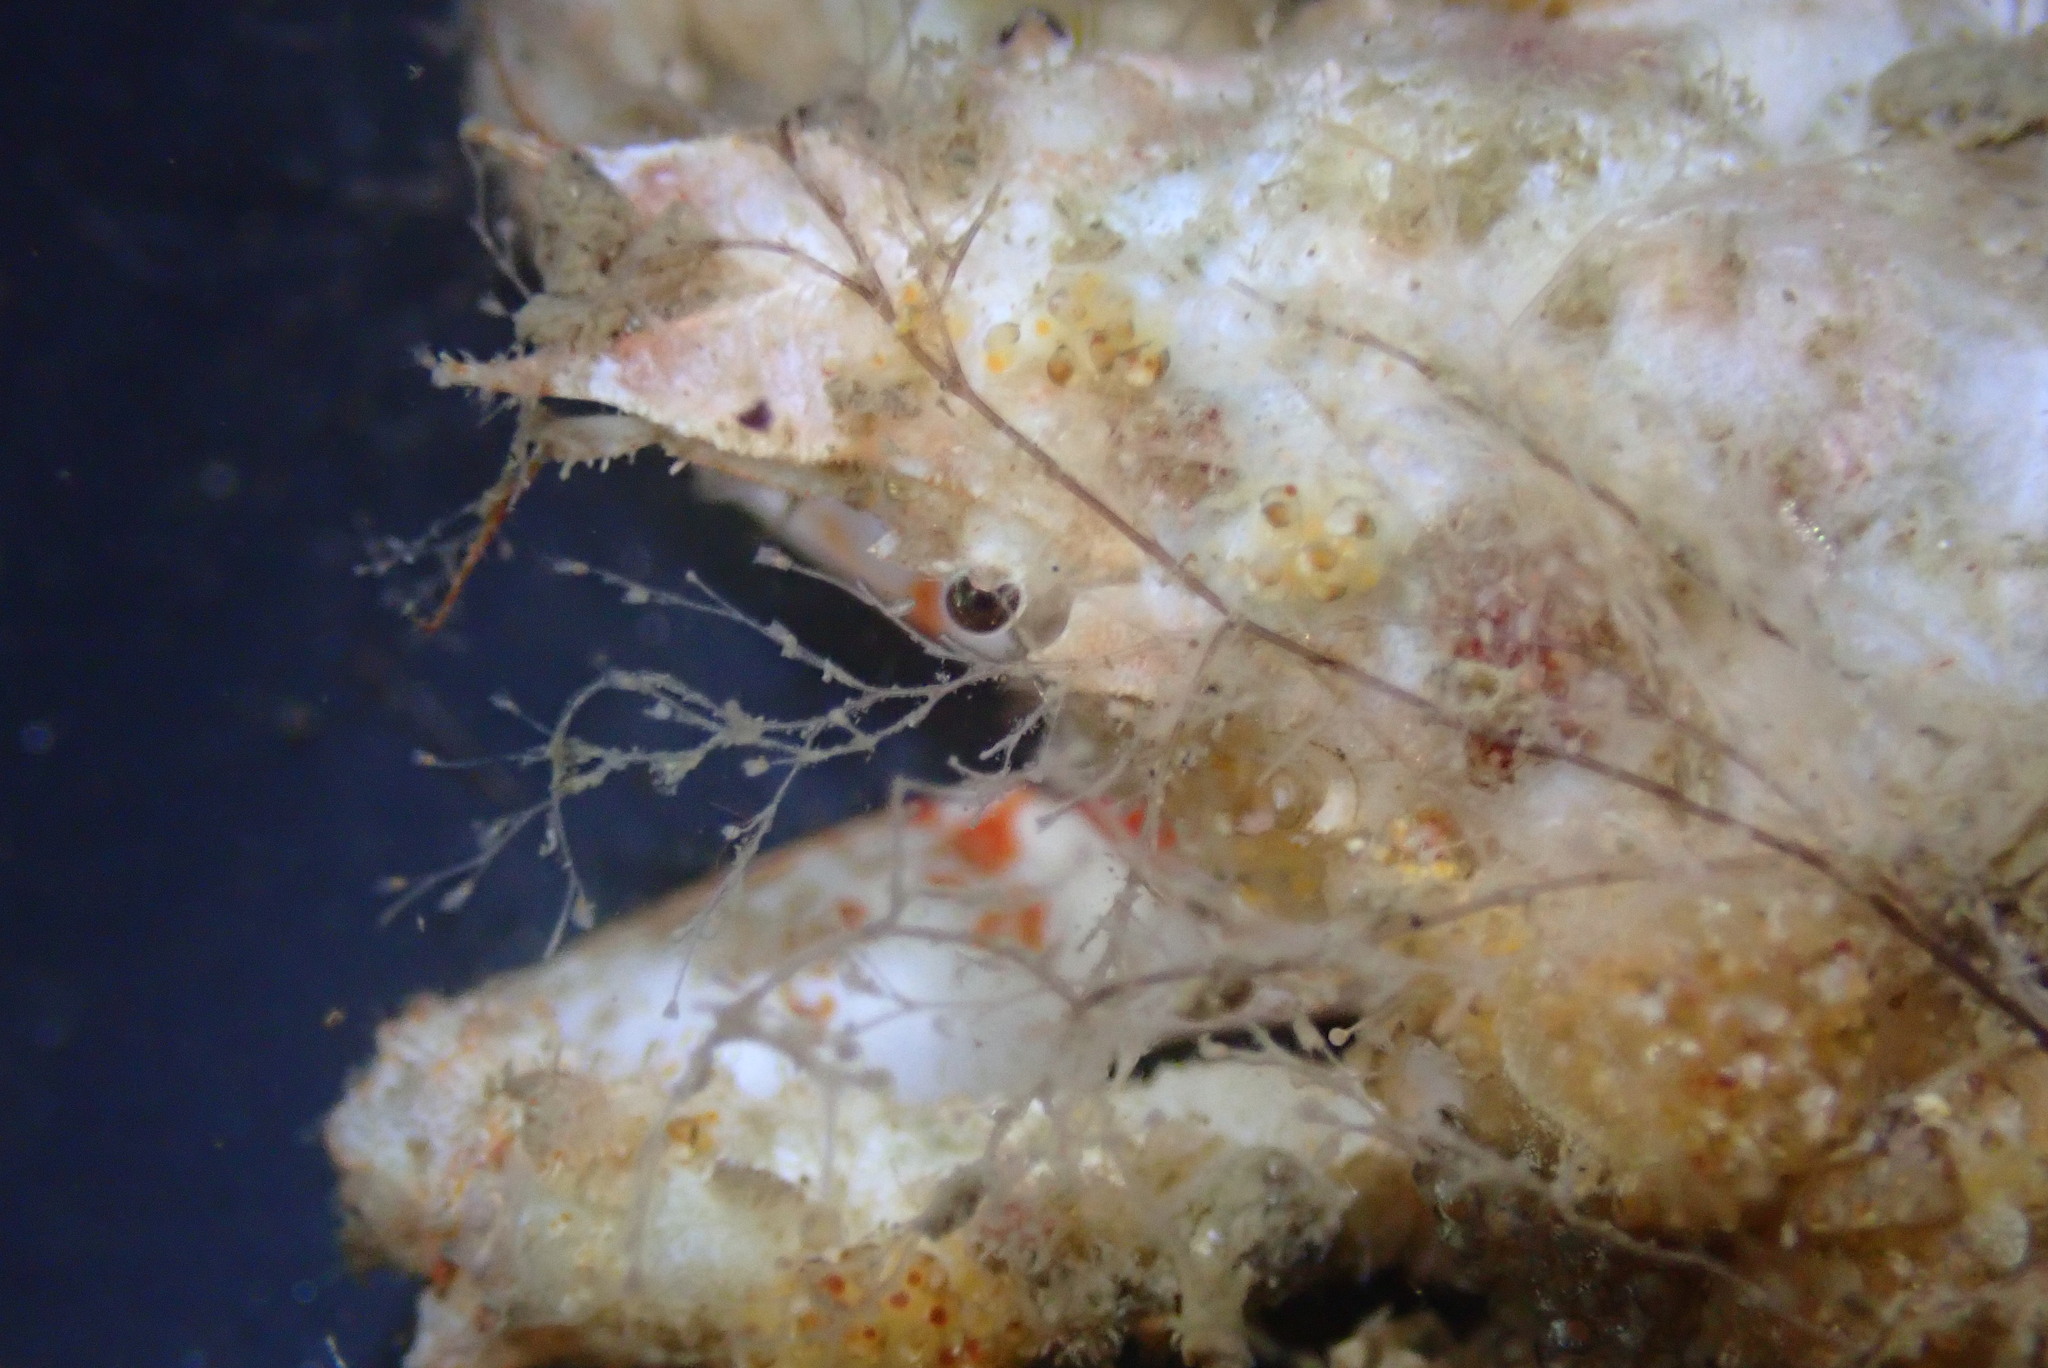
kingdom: Animalia
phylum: Arthropoda
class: Malacostraca
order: Decapoda
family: Epialtidae
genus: Scyra
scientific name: Scyra acutifrons
